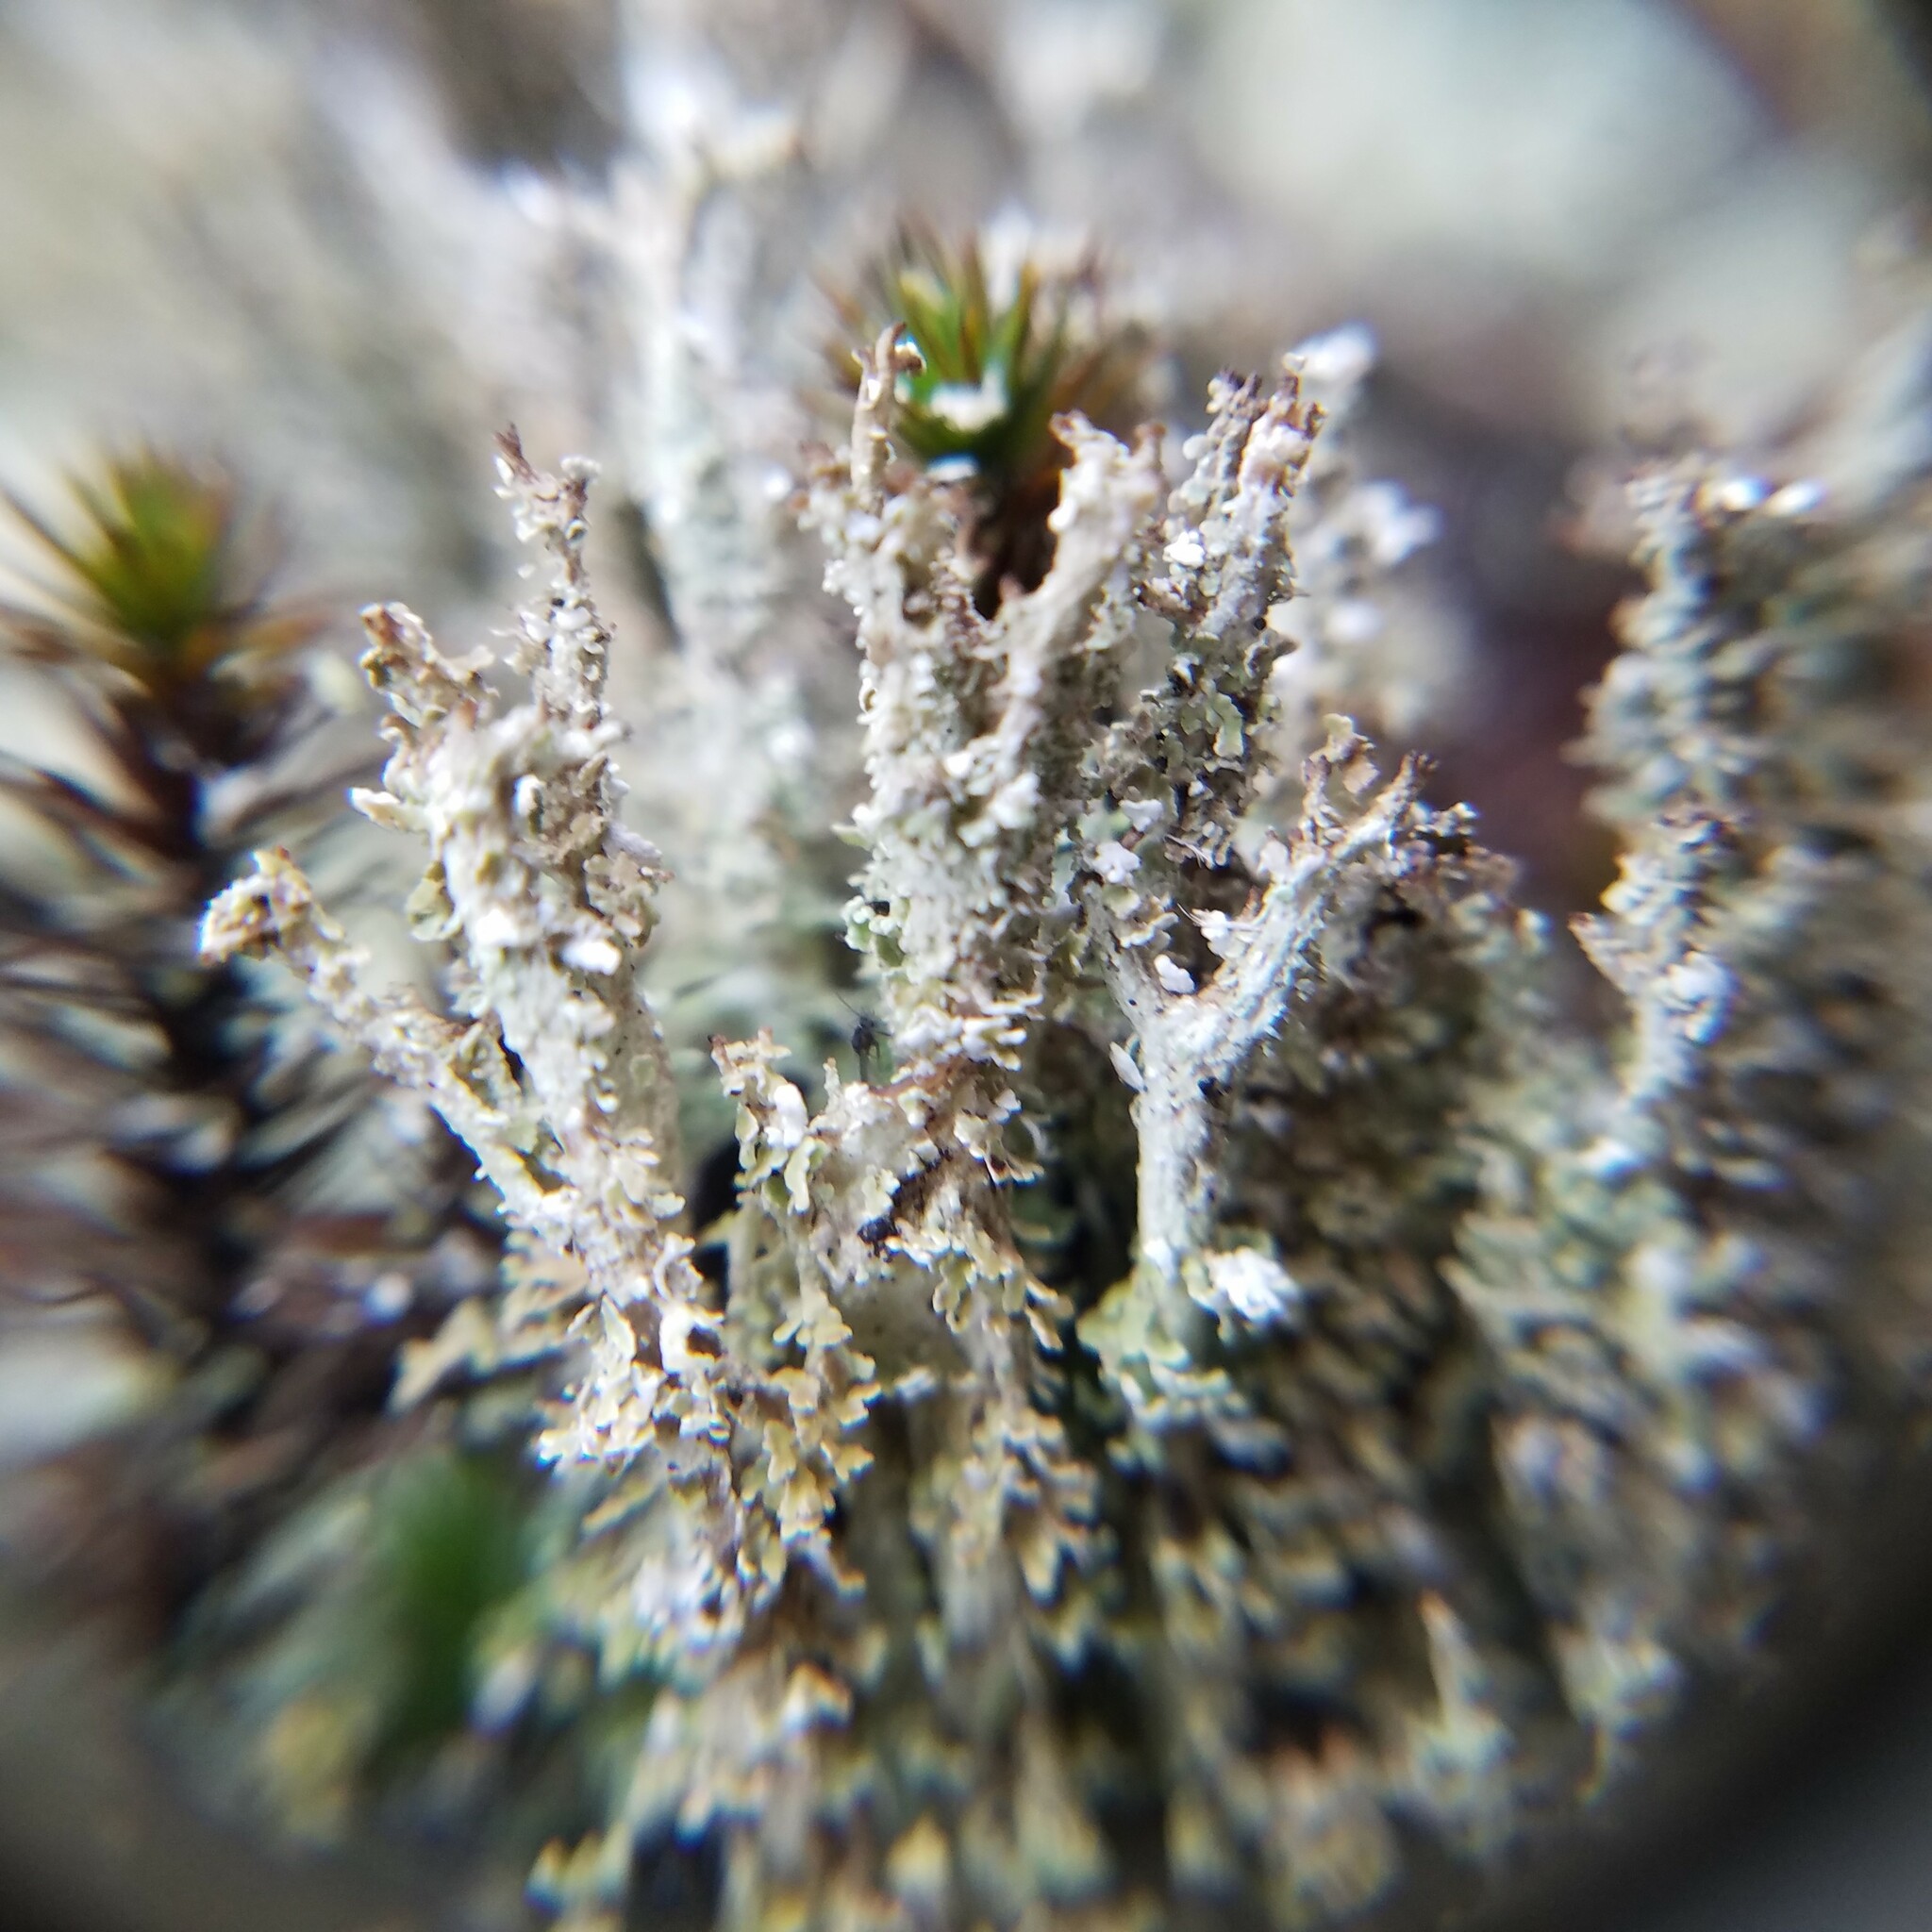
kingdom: Fungi
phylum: Ascomycota
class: Lecanoromycetes
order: Lecanorales
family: Cladoniaceae
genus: Cladonia
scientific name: Cladonia squamosa
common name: Dragon horn
